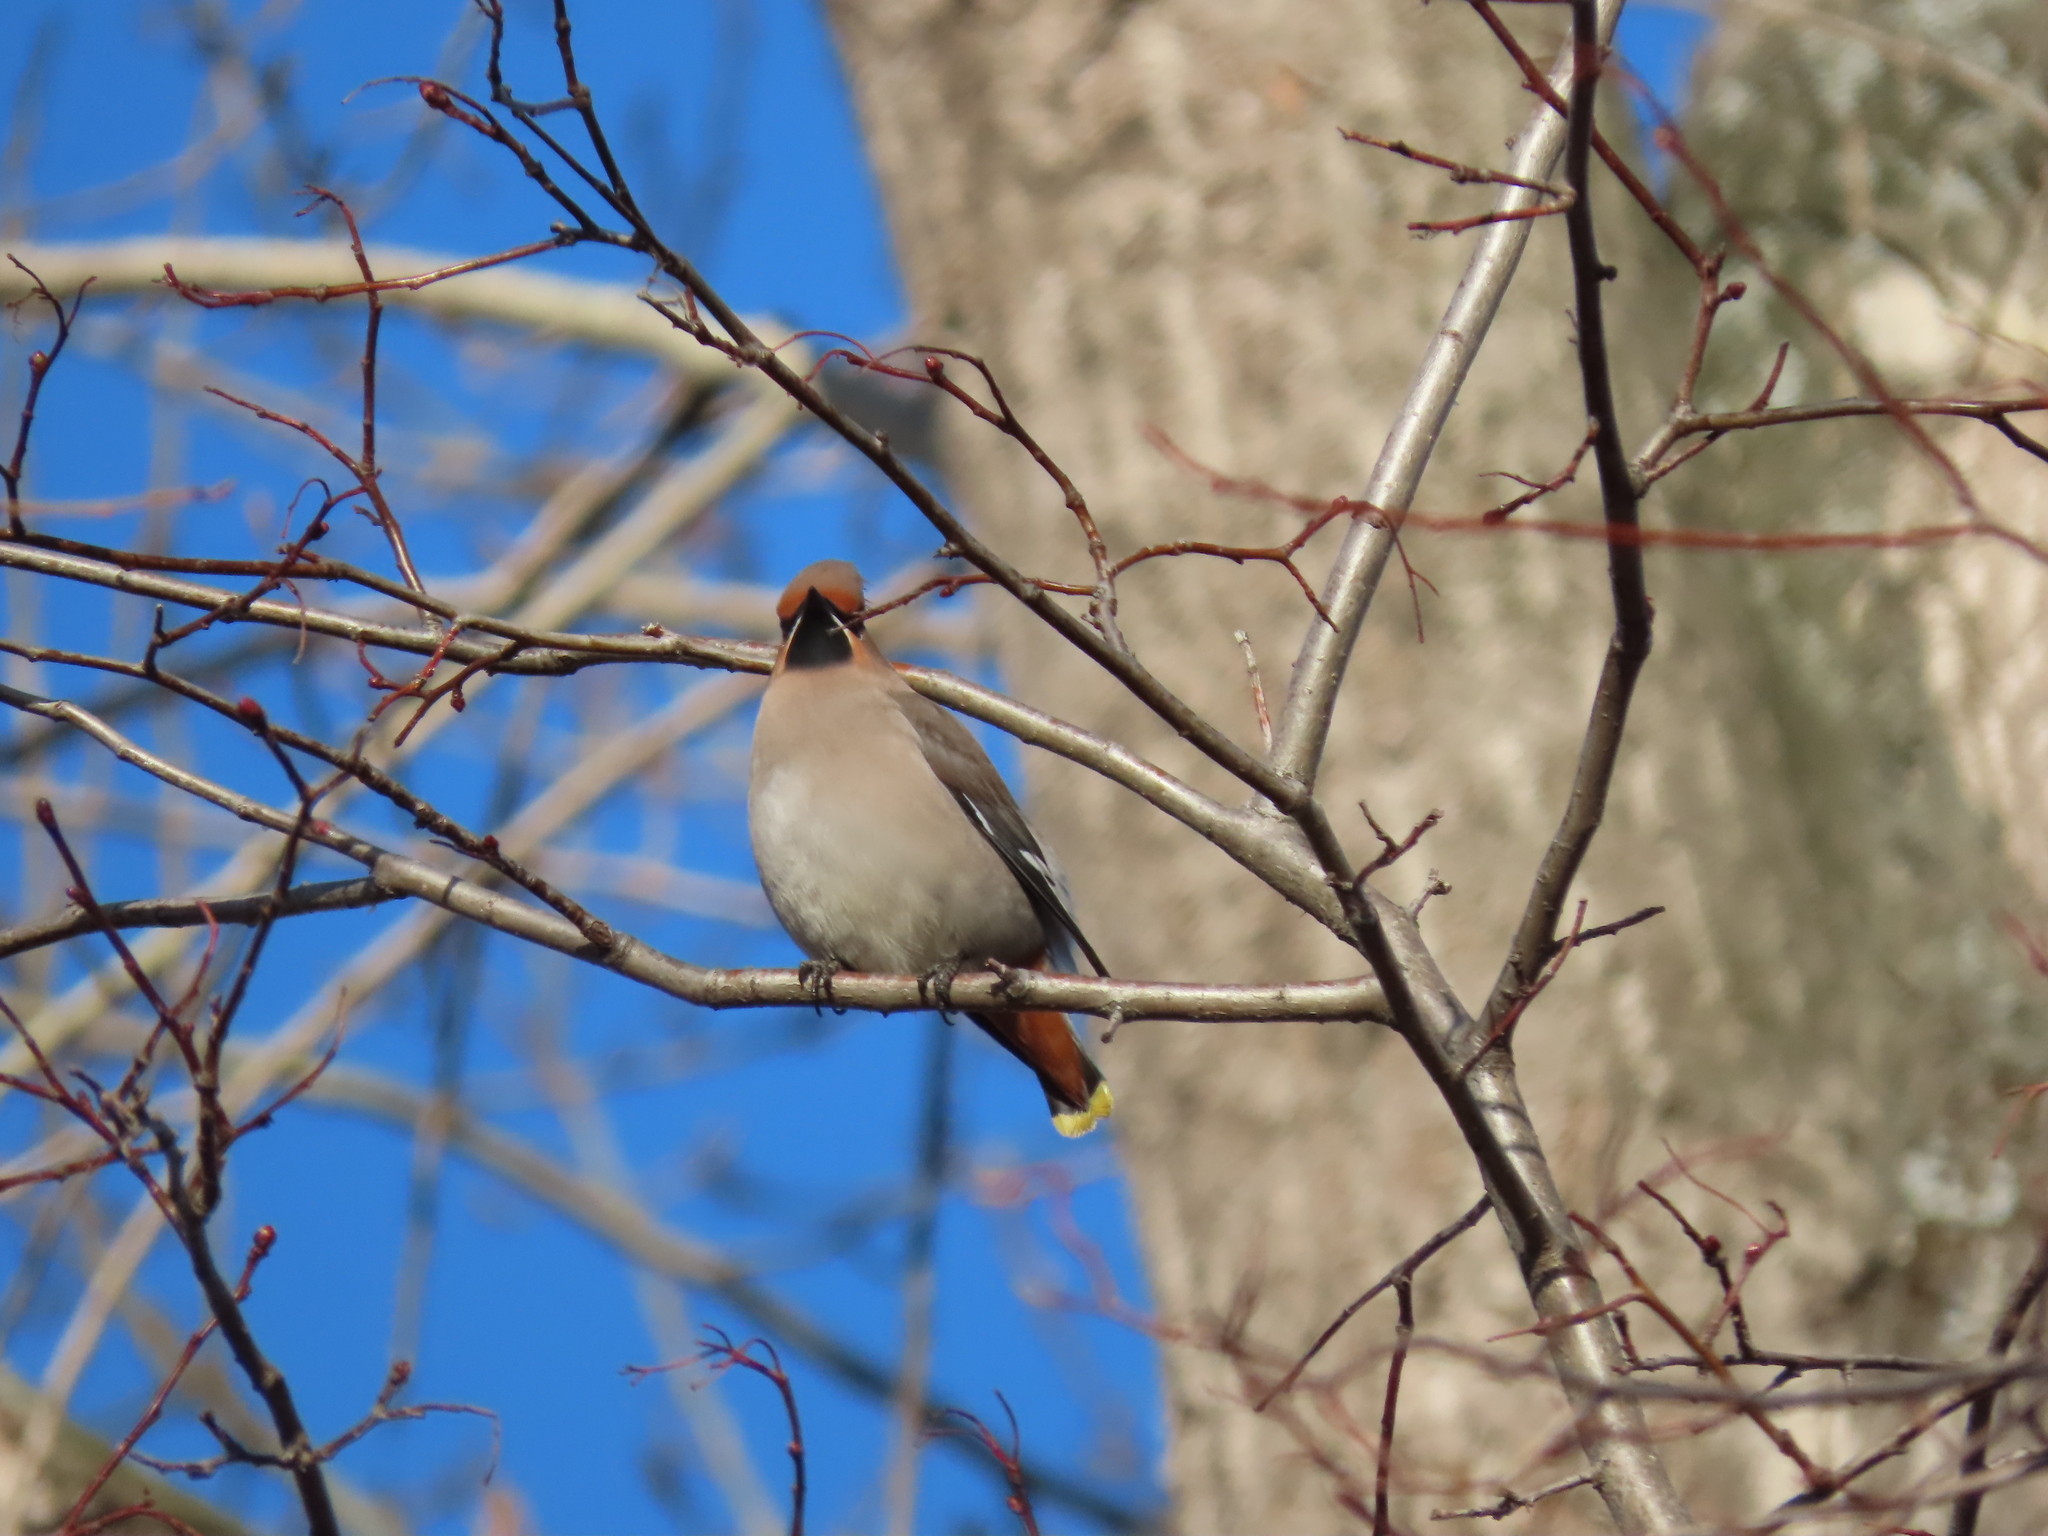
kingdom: Animalia
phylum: Chordata
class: Aves
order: Passeriformes
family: Bombycillidae
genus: Bombycilla
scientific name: Bombycilla garrulus
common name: Bohemian waxwing
